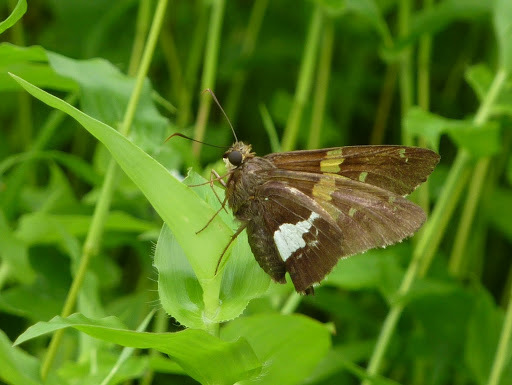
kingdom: Animalia
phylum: Arthropoda
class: Insecta
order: Lepidoptera
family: Hesperiidae
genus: Epargyreus
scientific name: Epargyreus clarus
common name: Silver-spotted skipper
